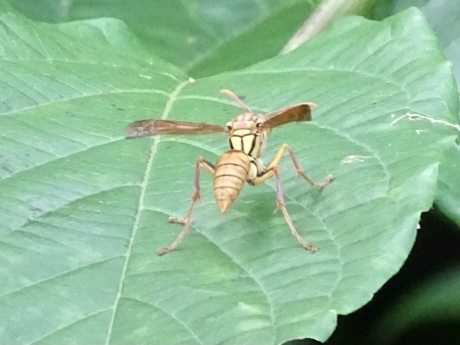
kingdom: Animalia
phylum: Arthropoda
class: Insecta
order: Hymenoptera
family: Eumenidae
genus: Polistes
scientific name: Polistes japonicus
